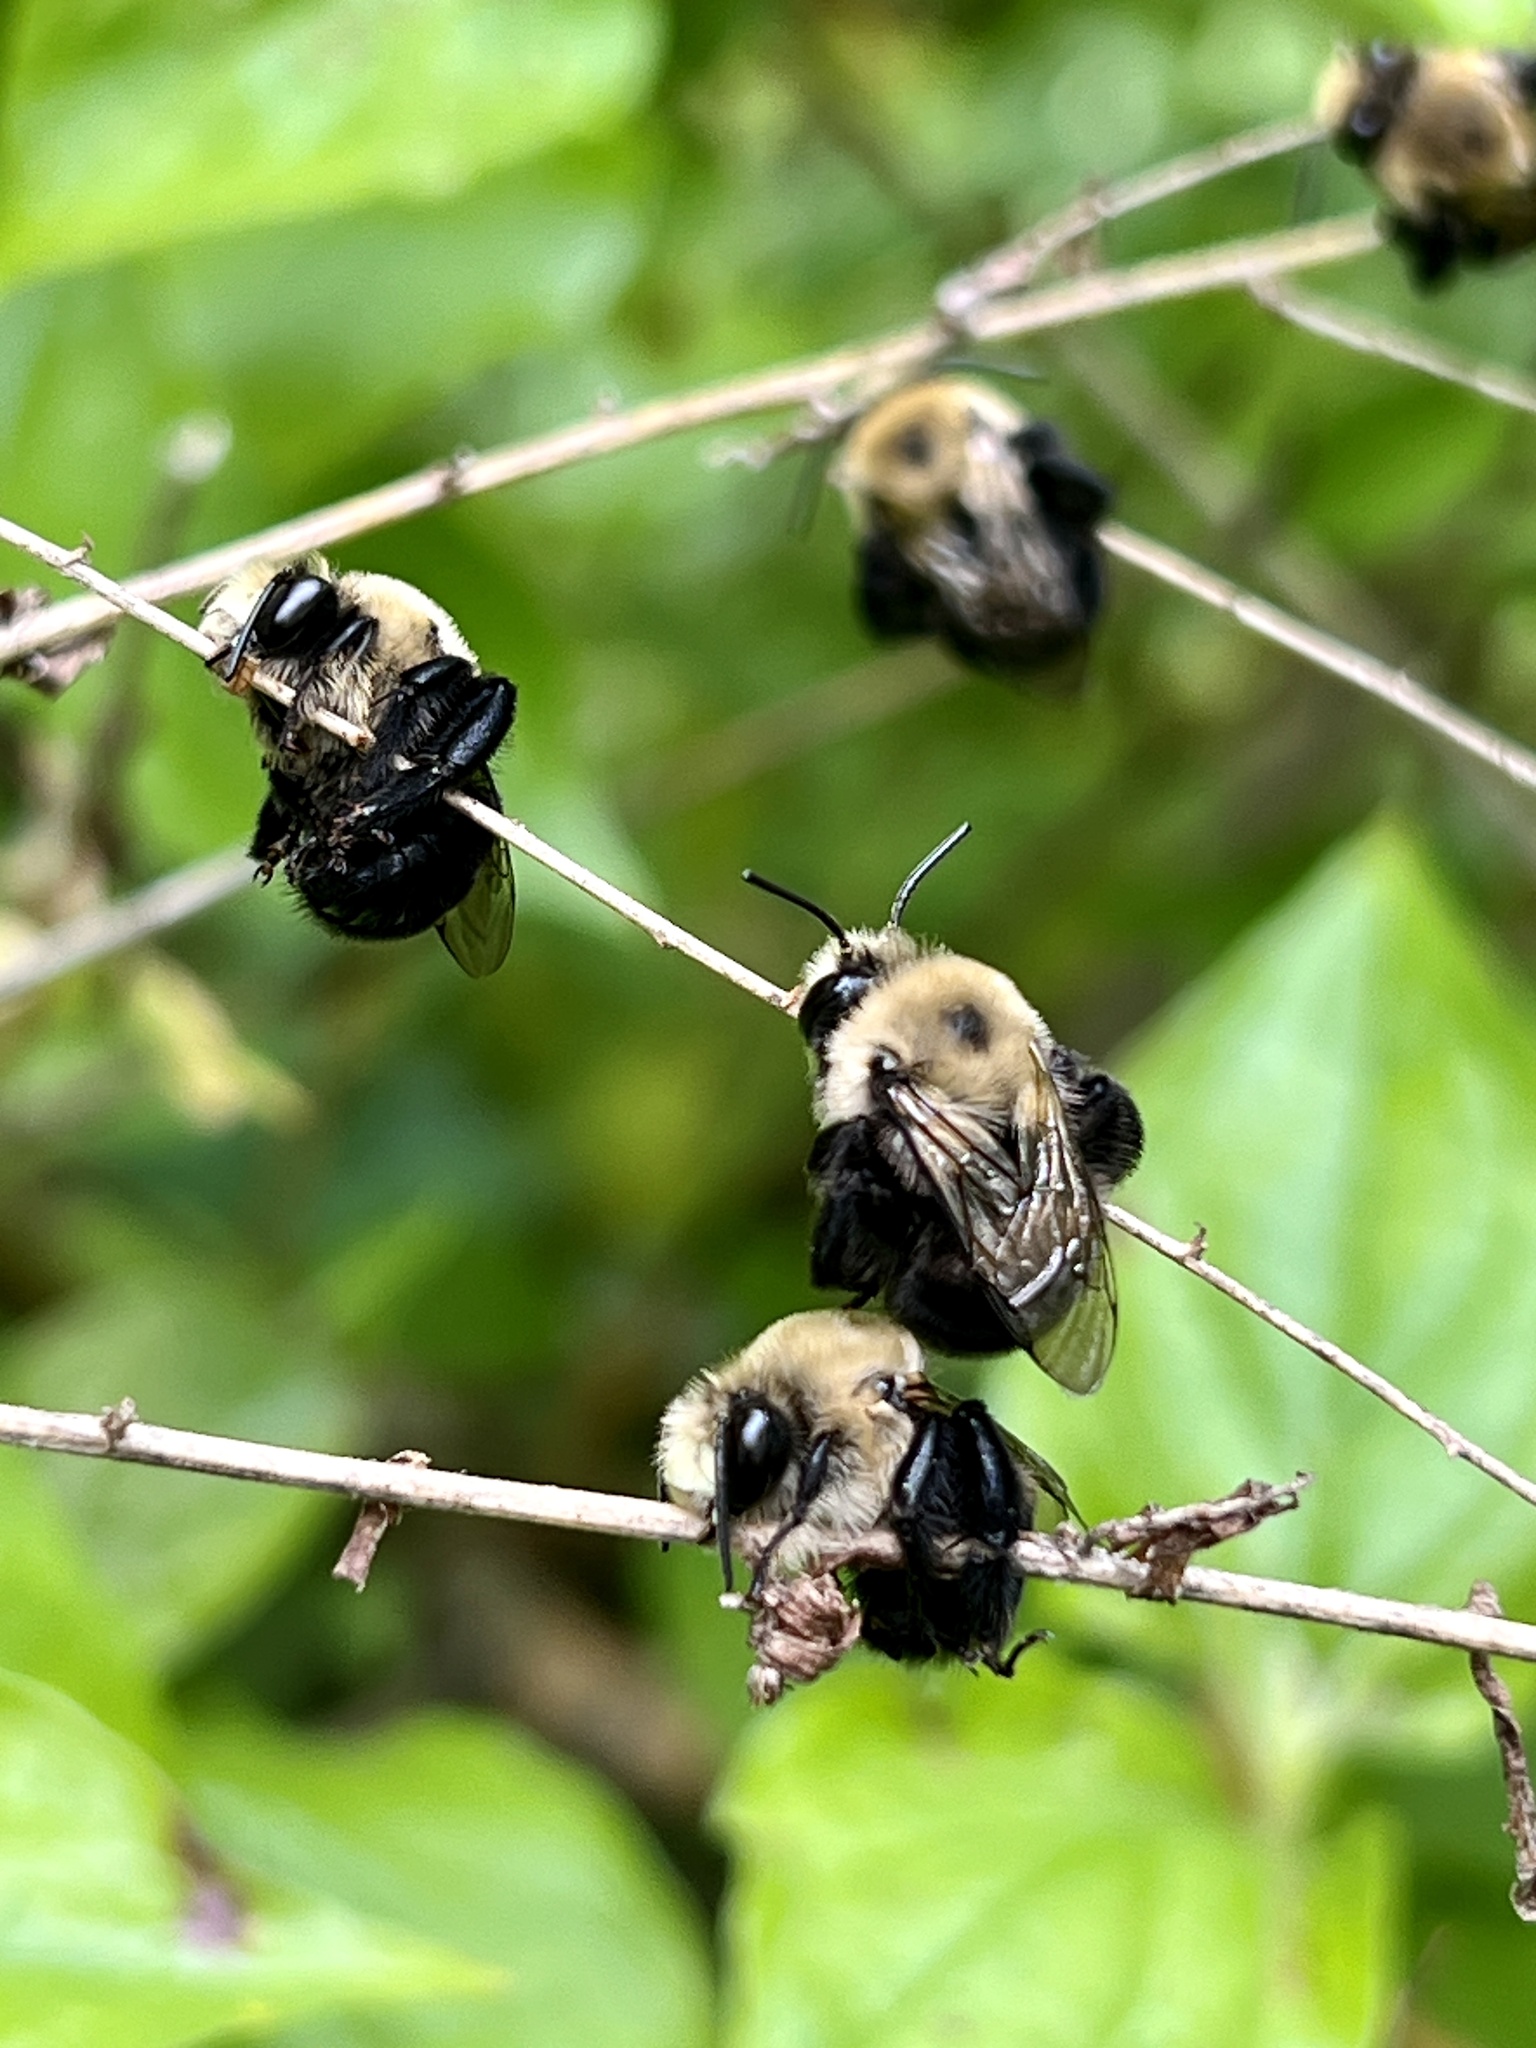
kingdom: Animalia
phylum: Arthropoda
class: Insecta
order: Hymenoptera
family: Apidae
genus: Anthophora
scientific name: Anthophora abrupta
